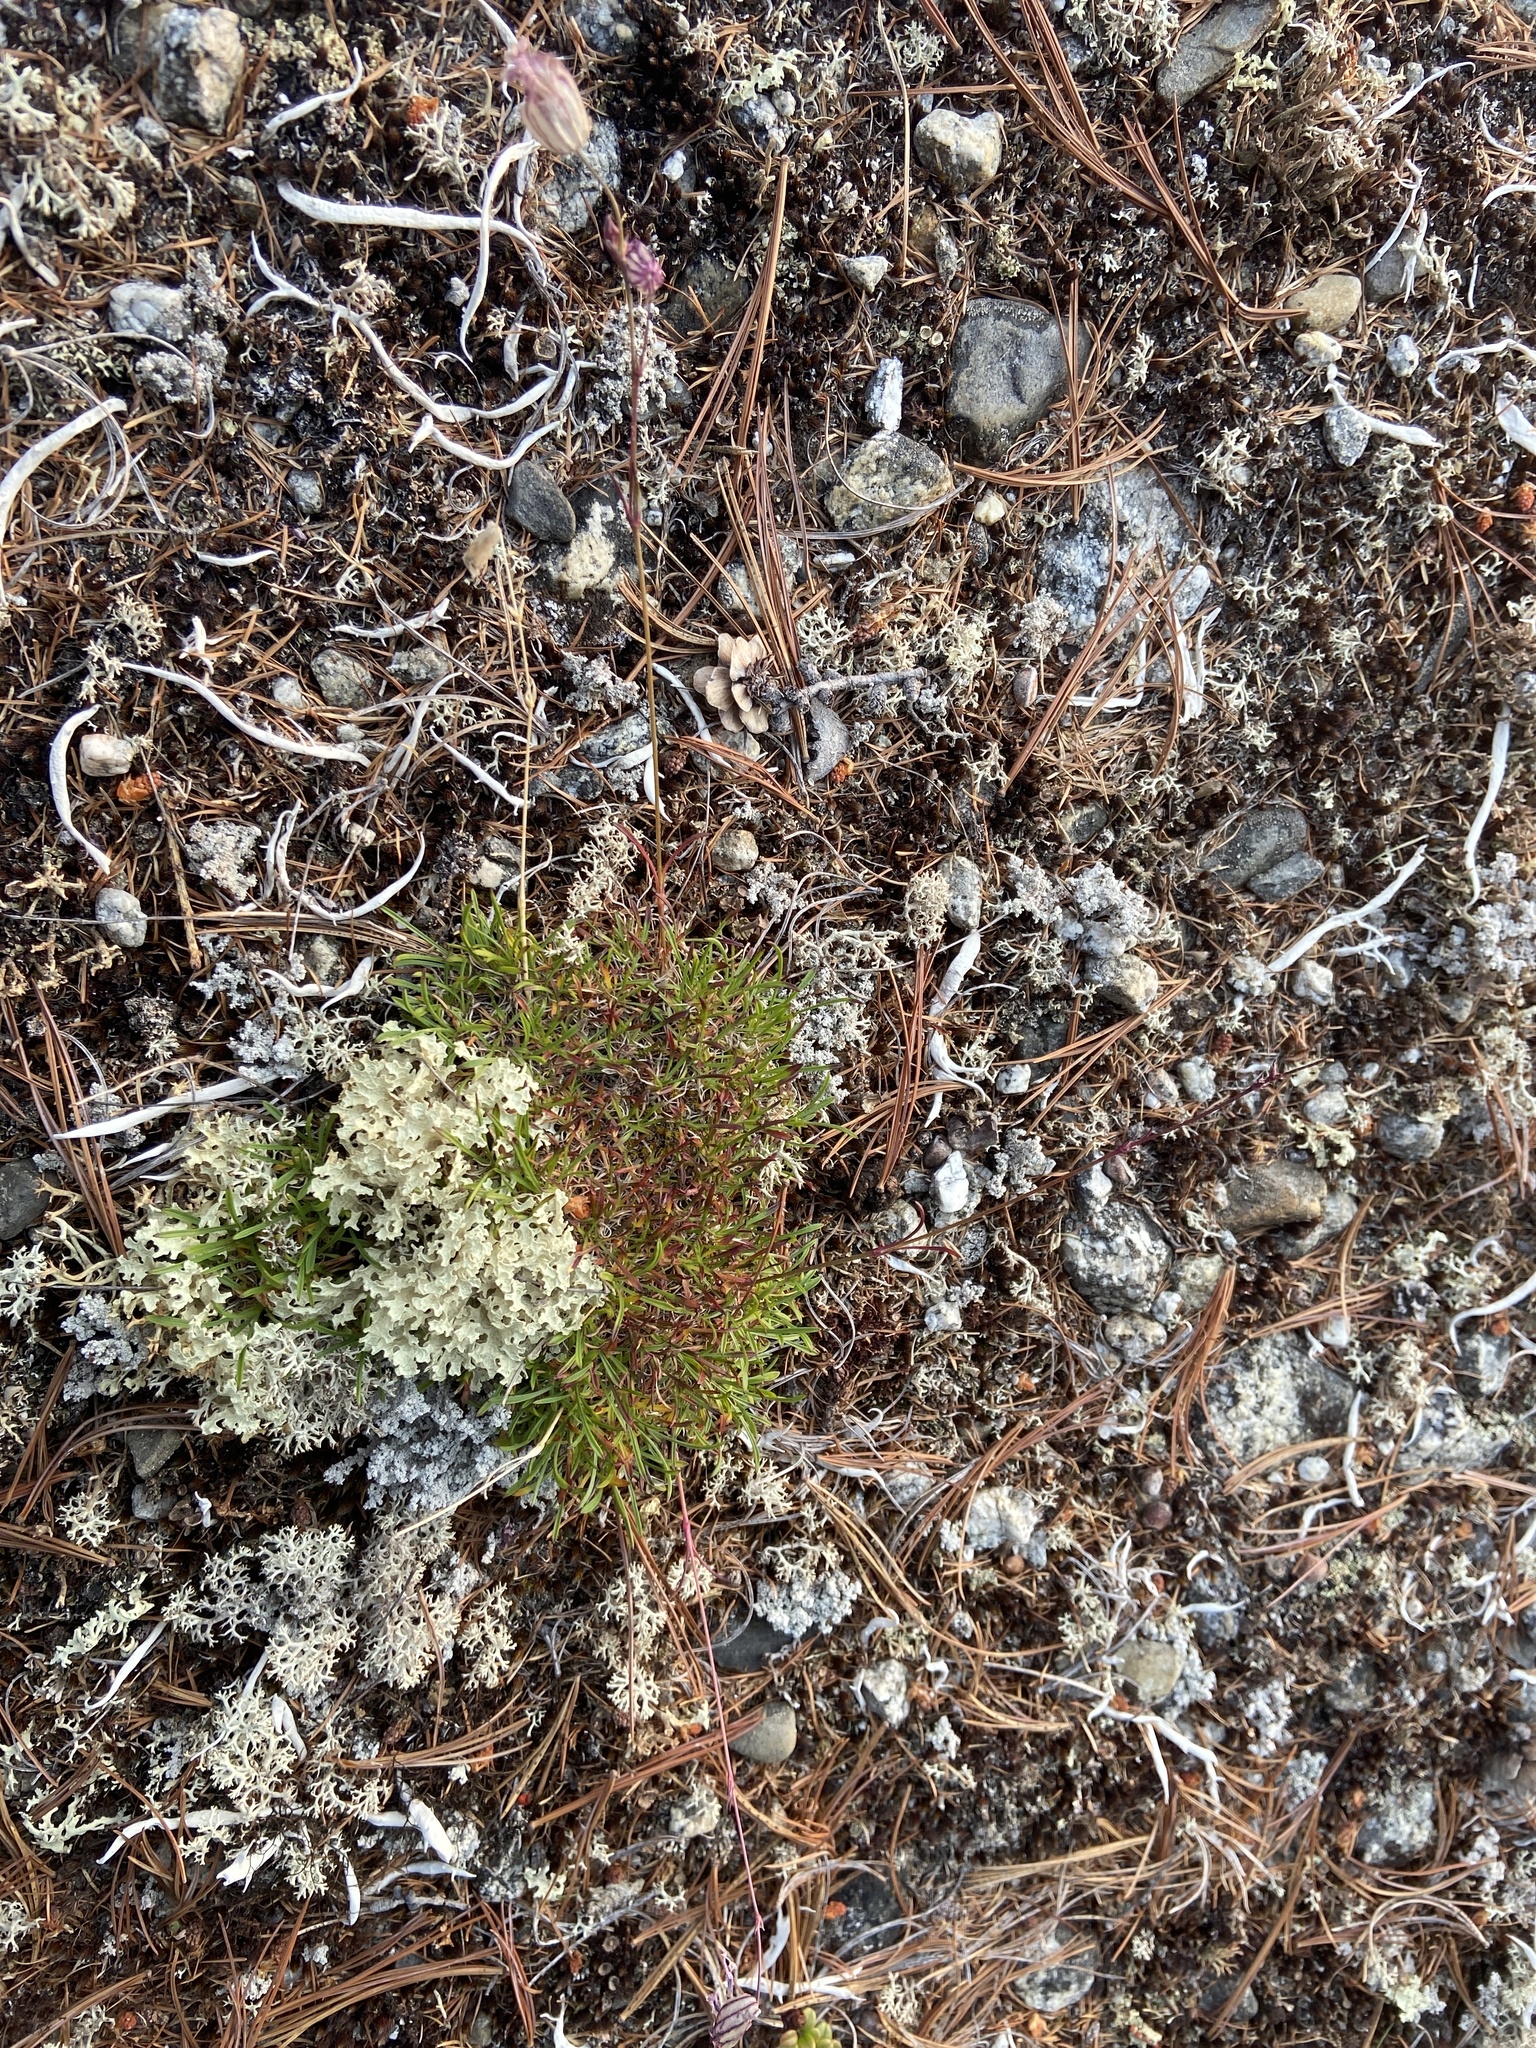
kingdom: Plantae
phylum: Tracheophyta
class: Magnoliopsida
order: Caryophyllales
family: Caryophyllaceae
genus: Silene
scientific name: Silene stenophylla
